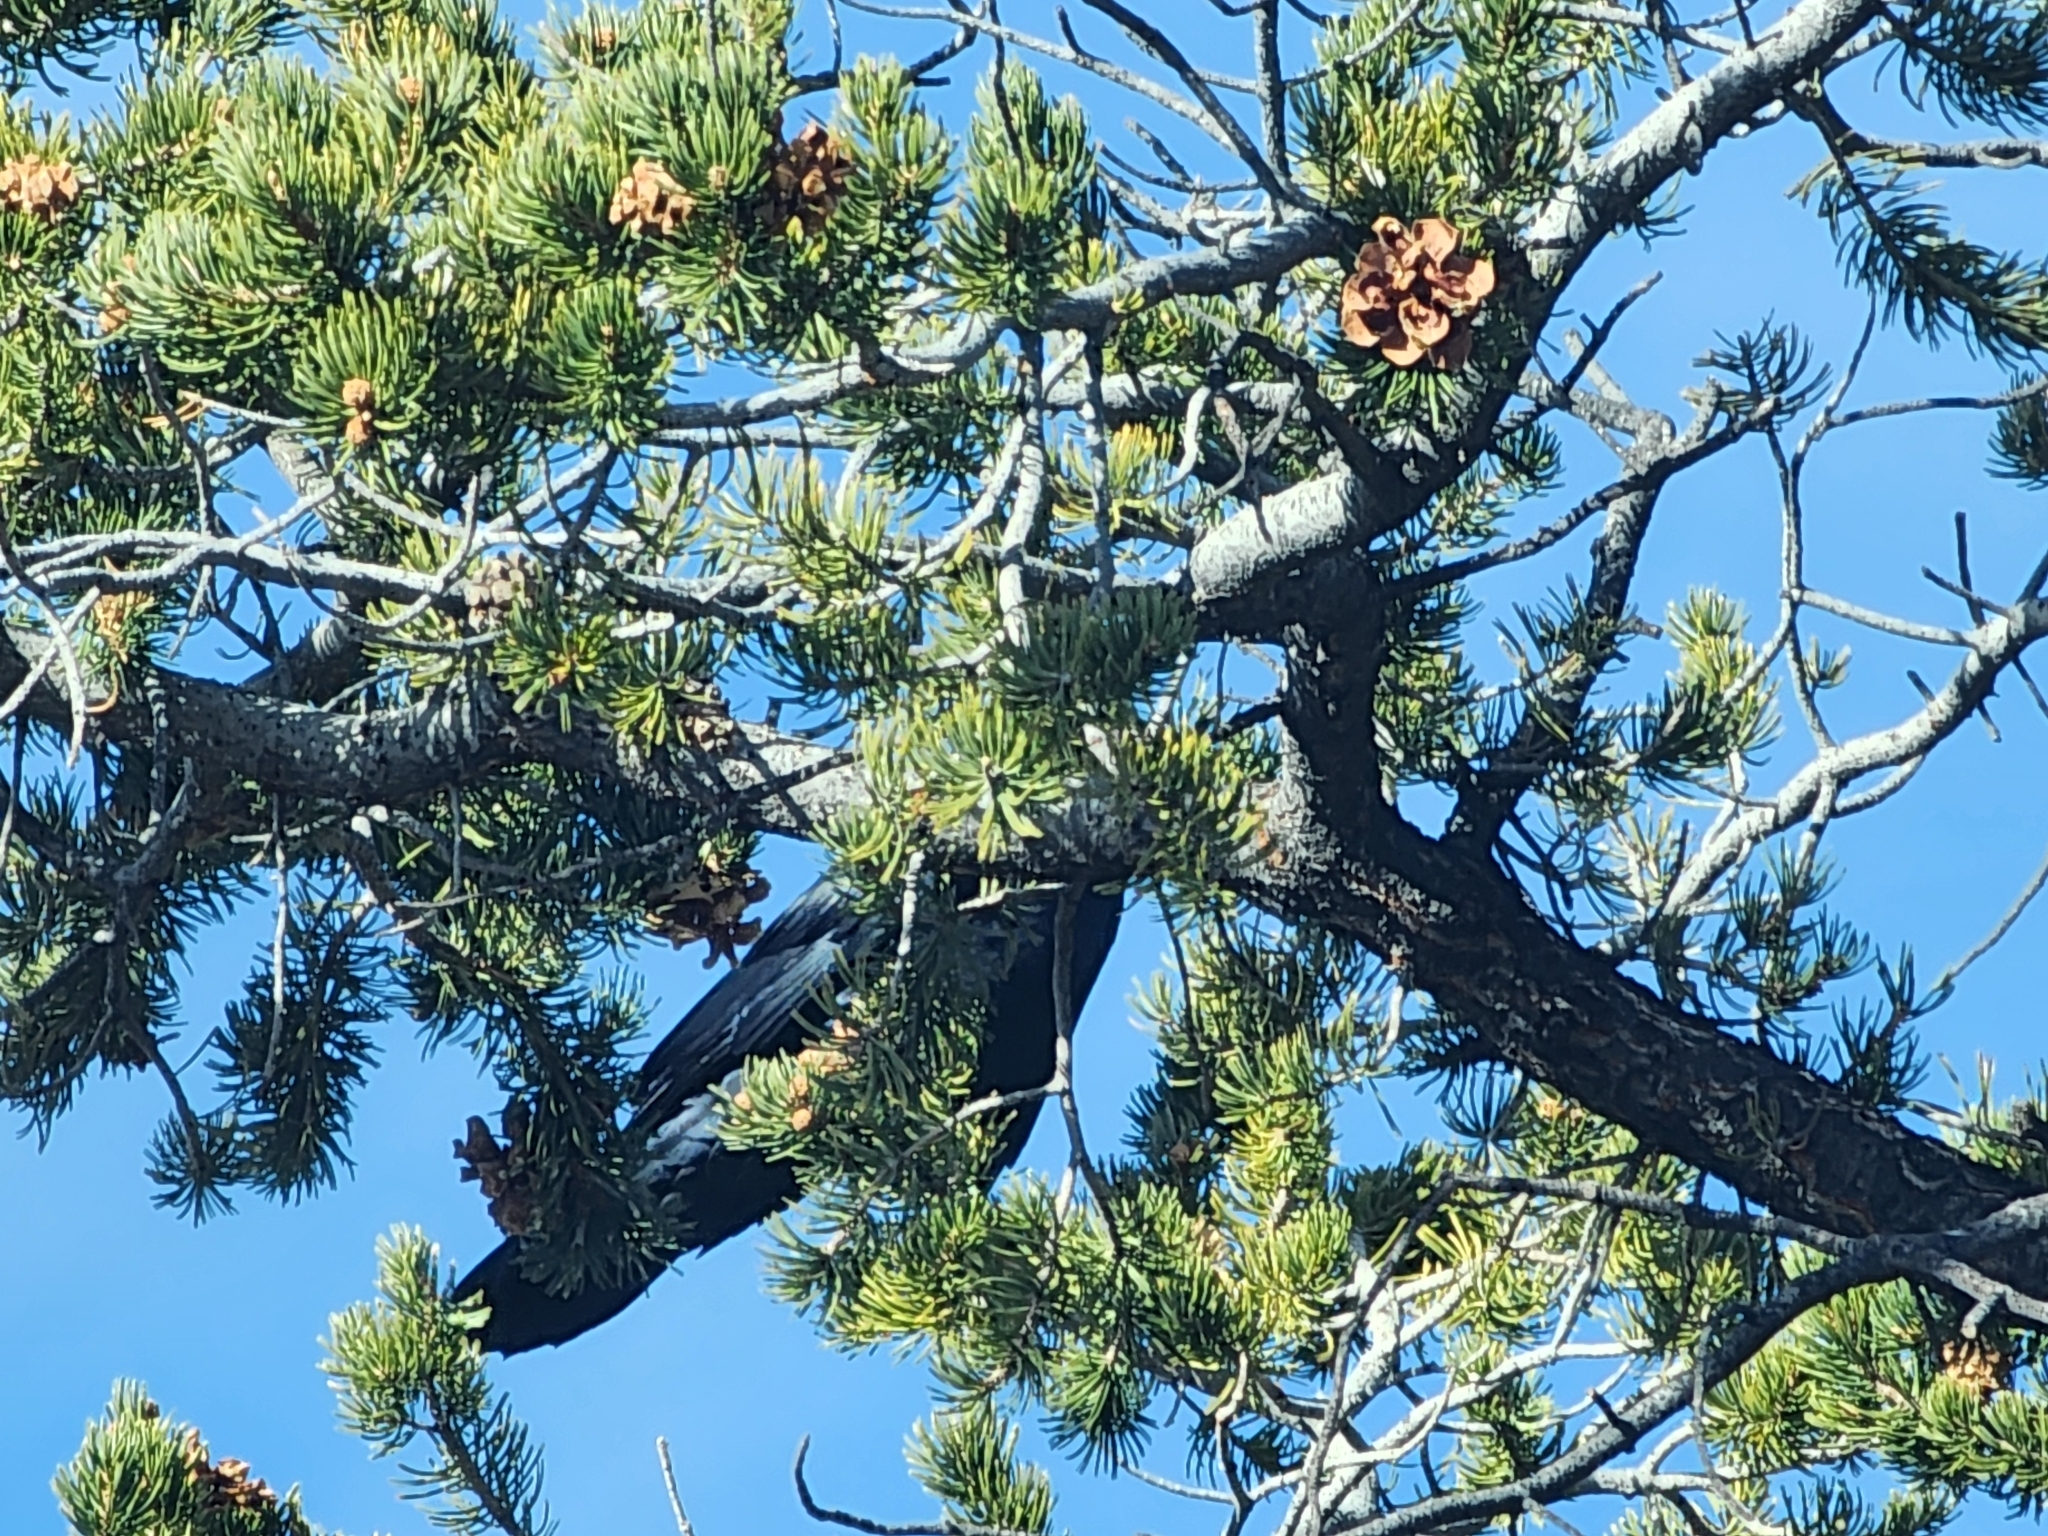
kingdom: Animalia
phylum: Chordata
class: Aves
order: Passeriformes
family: Corvidae
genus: Corvus
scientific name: Corvus corax
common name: Common raven
